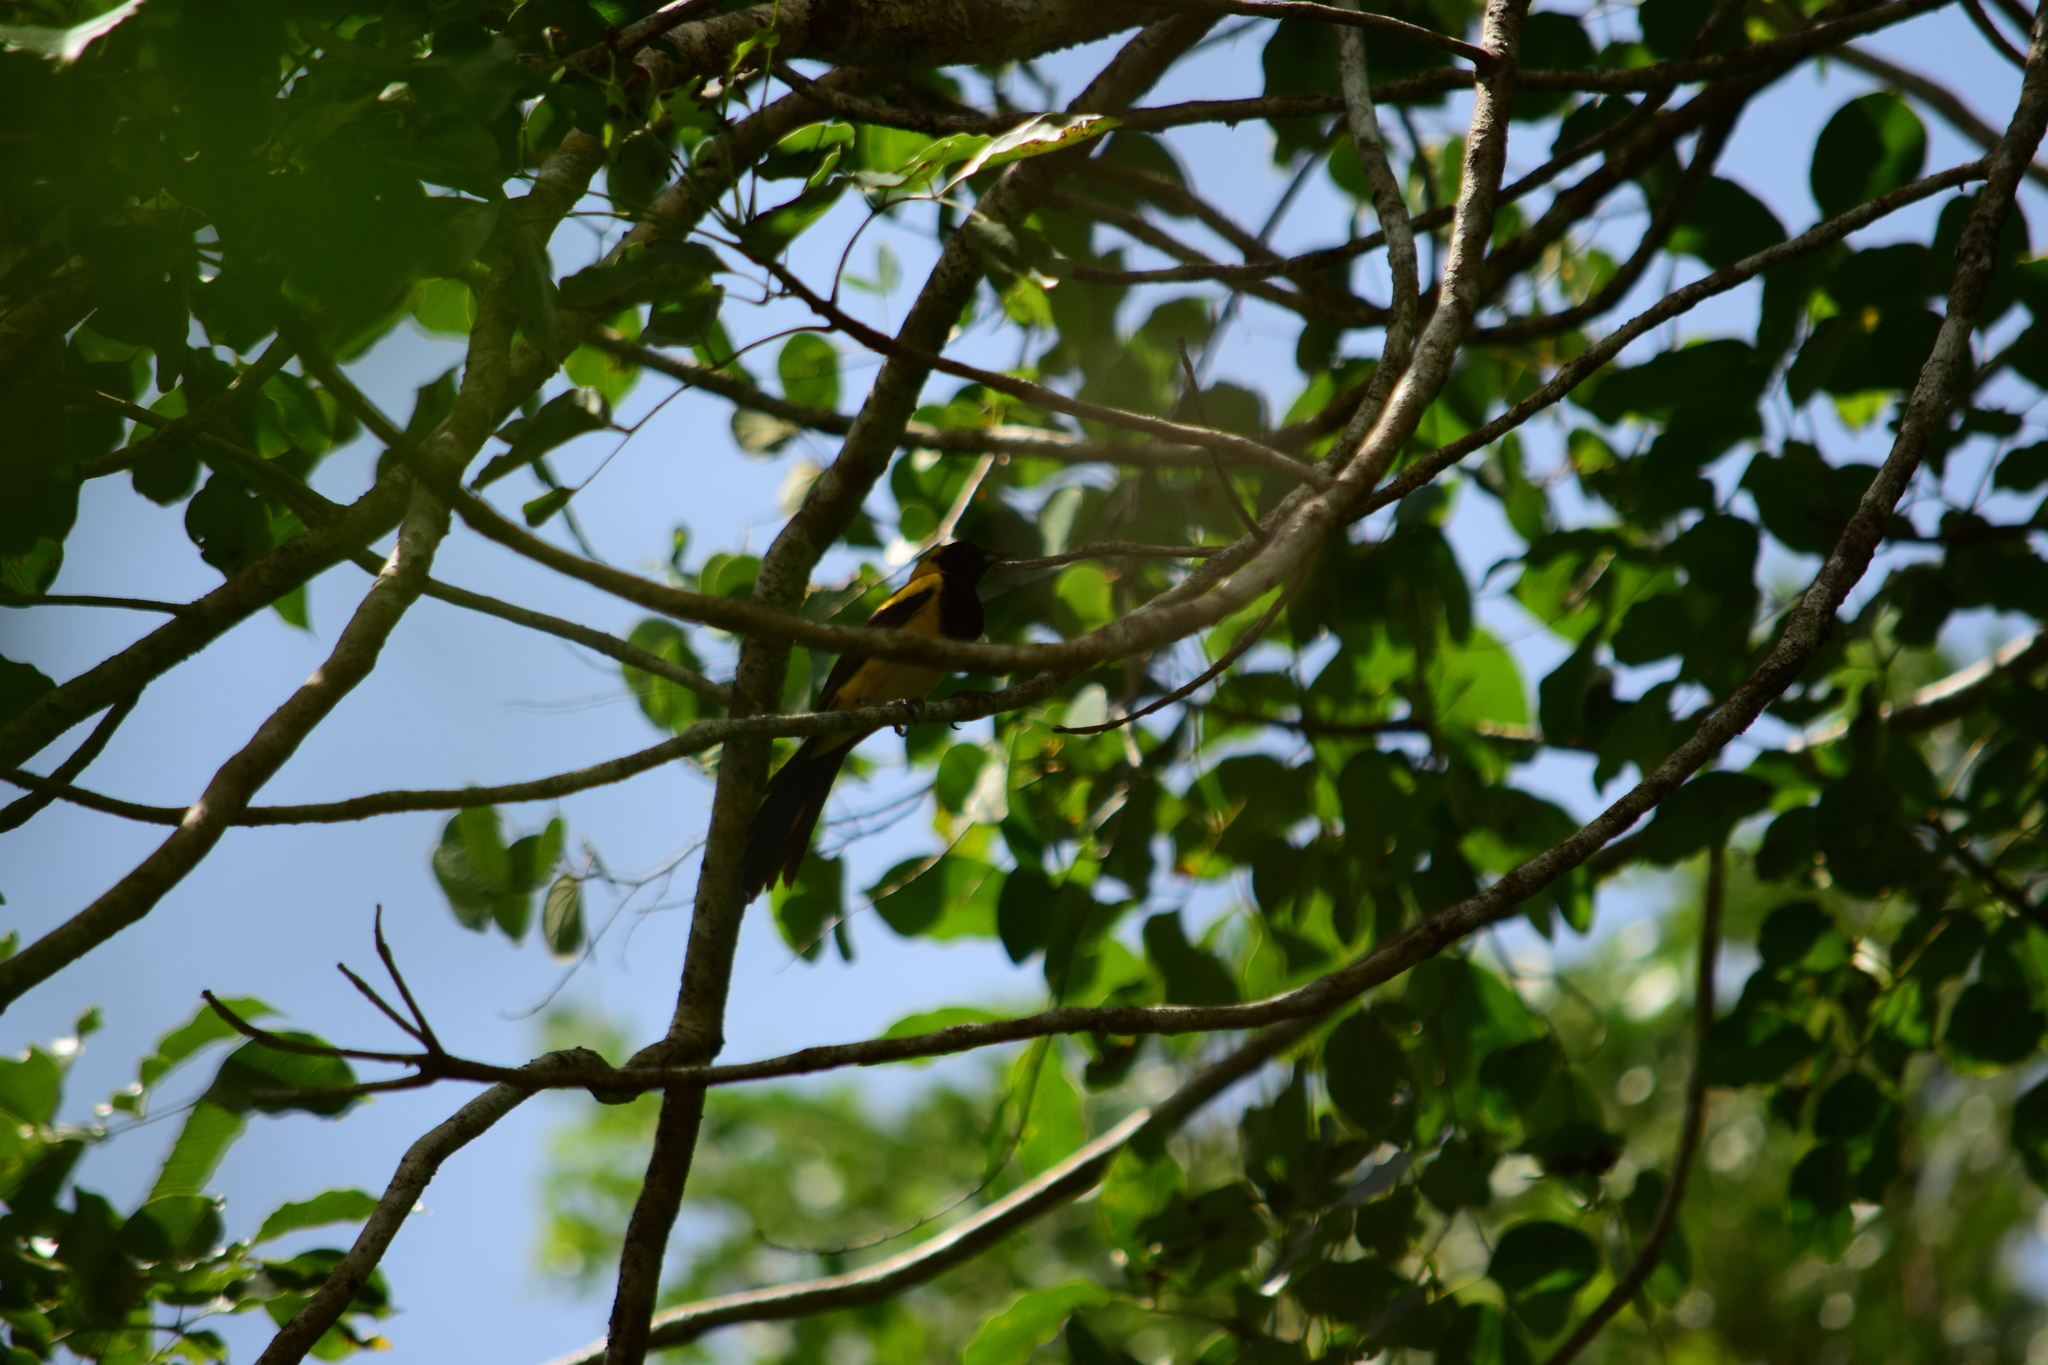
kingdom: Animalia
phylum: Chordata
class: Aves
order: Passeriformes
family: Icteridae
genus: Icterus
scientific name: Icterus chrysater
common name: Yellow-backed oriole
